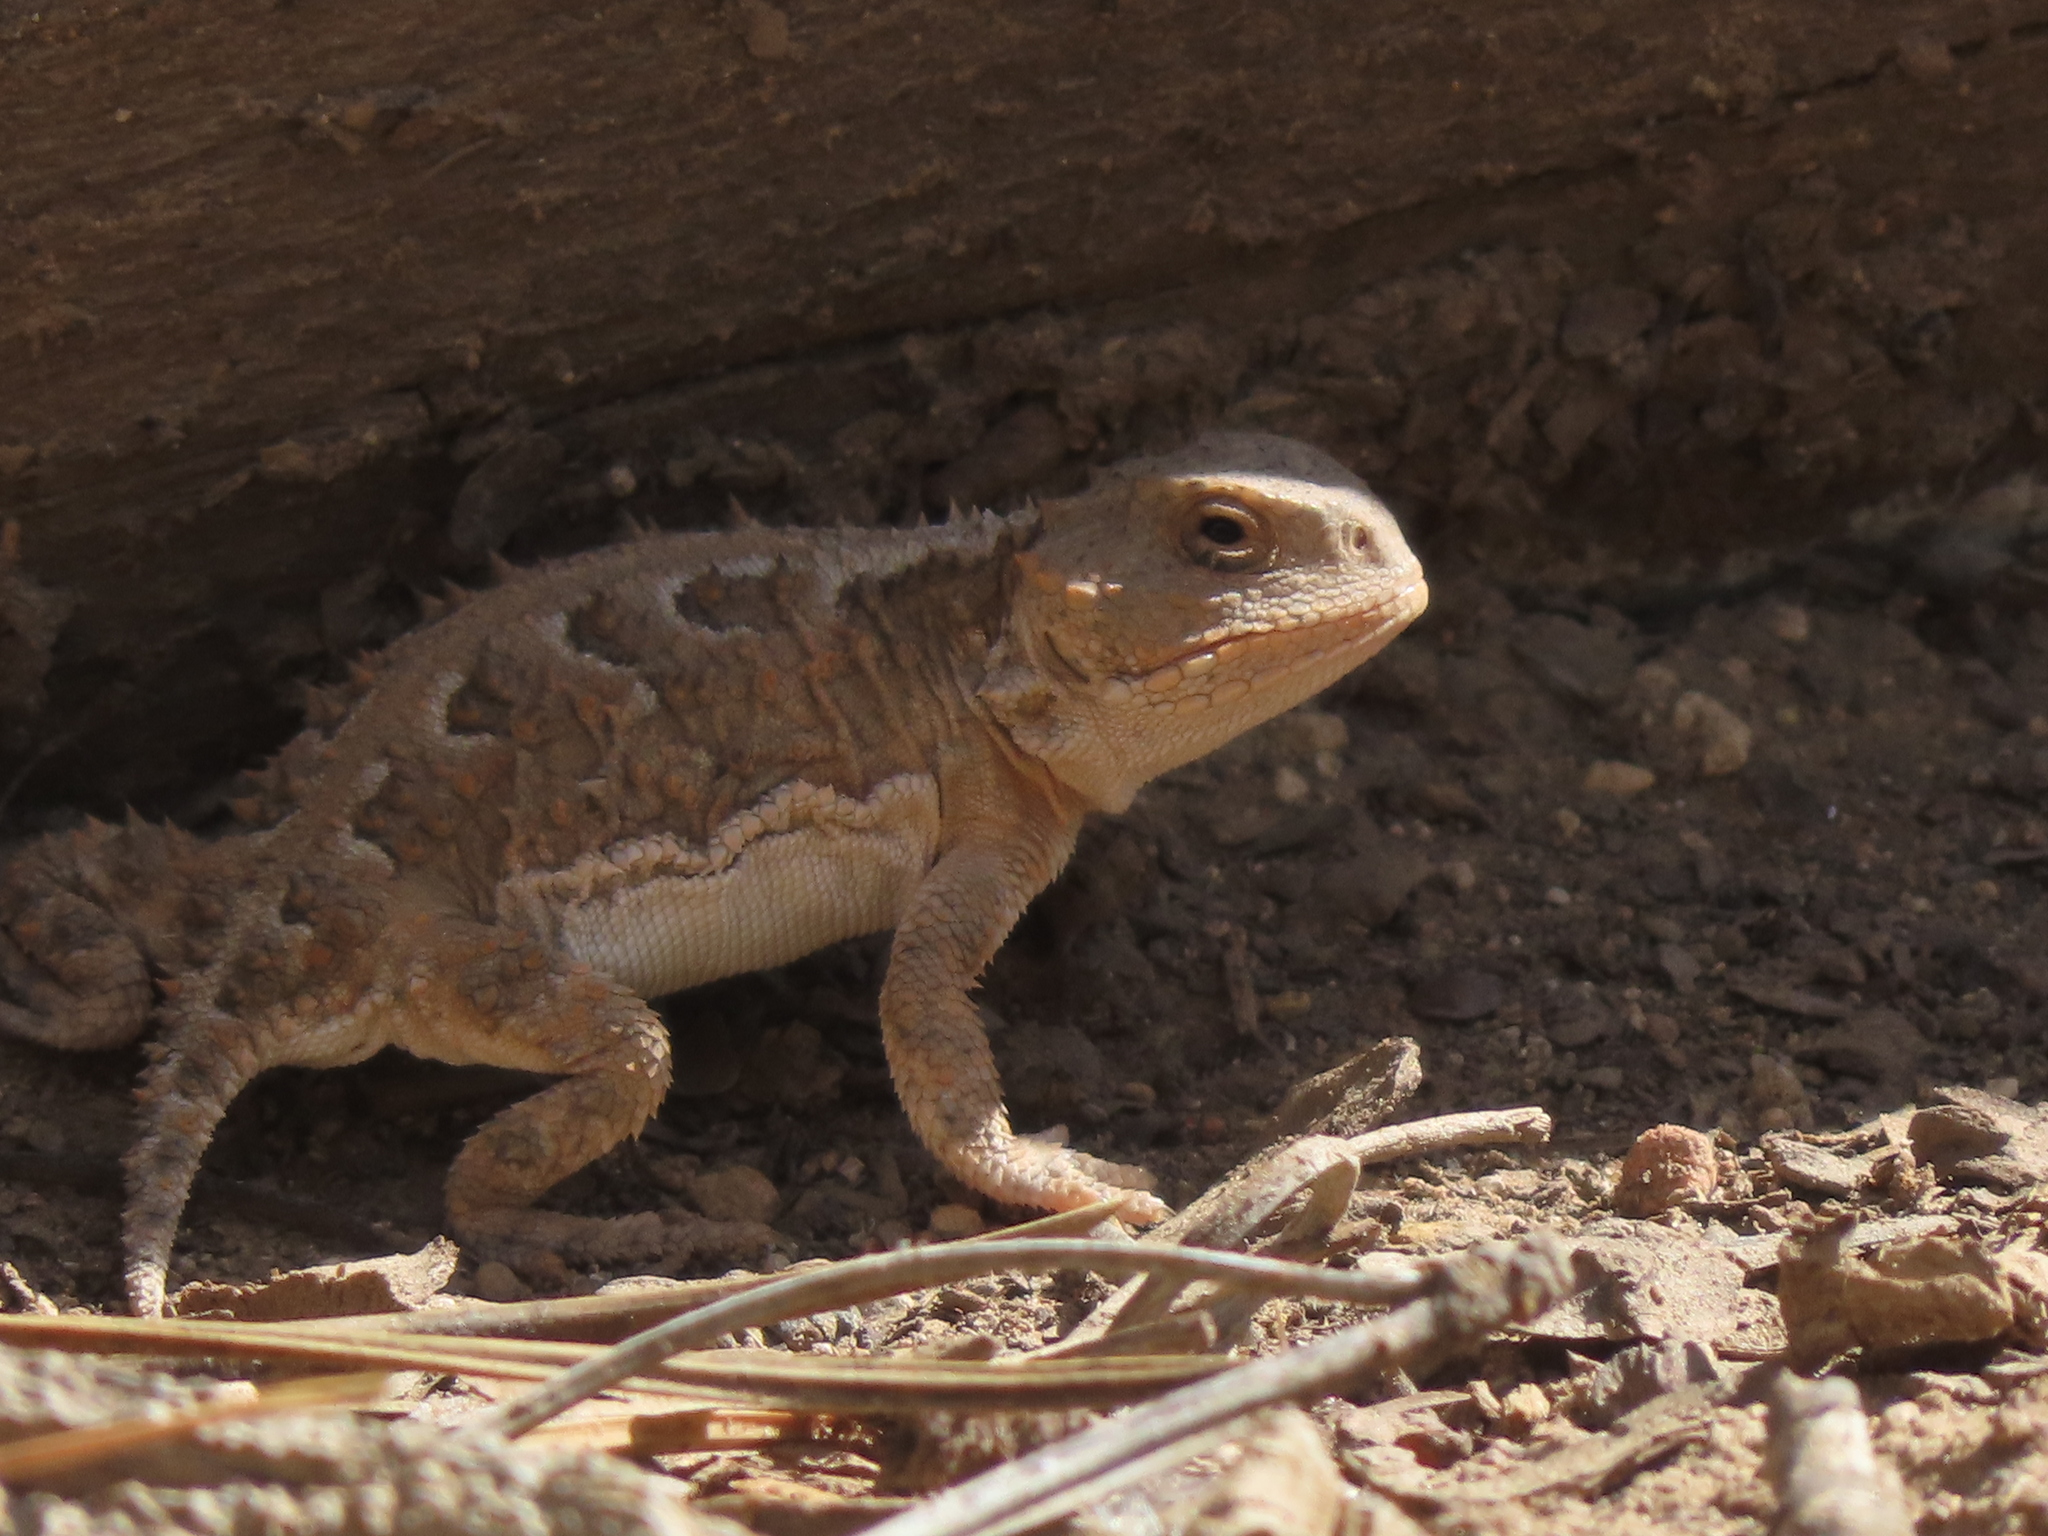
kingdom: Animalia
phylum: Chordata
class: Squamata
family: Phrynosomatidae
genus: Phrynosoma
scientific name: Phrynosoma hernandesi
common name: Greater short-horned lizard
